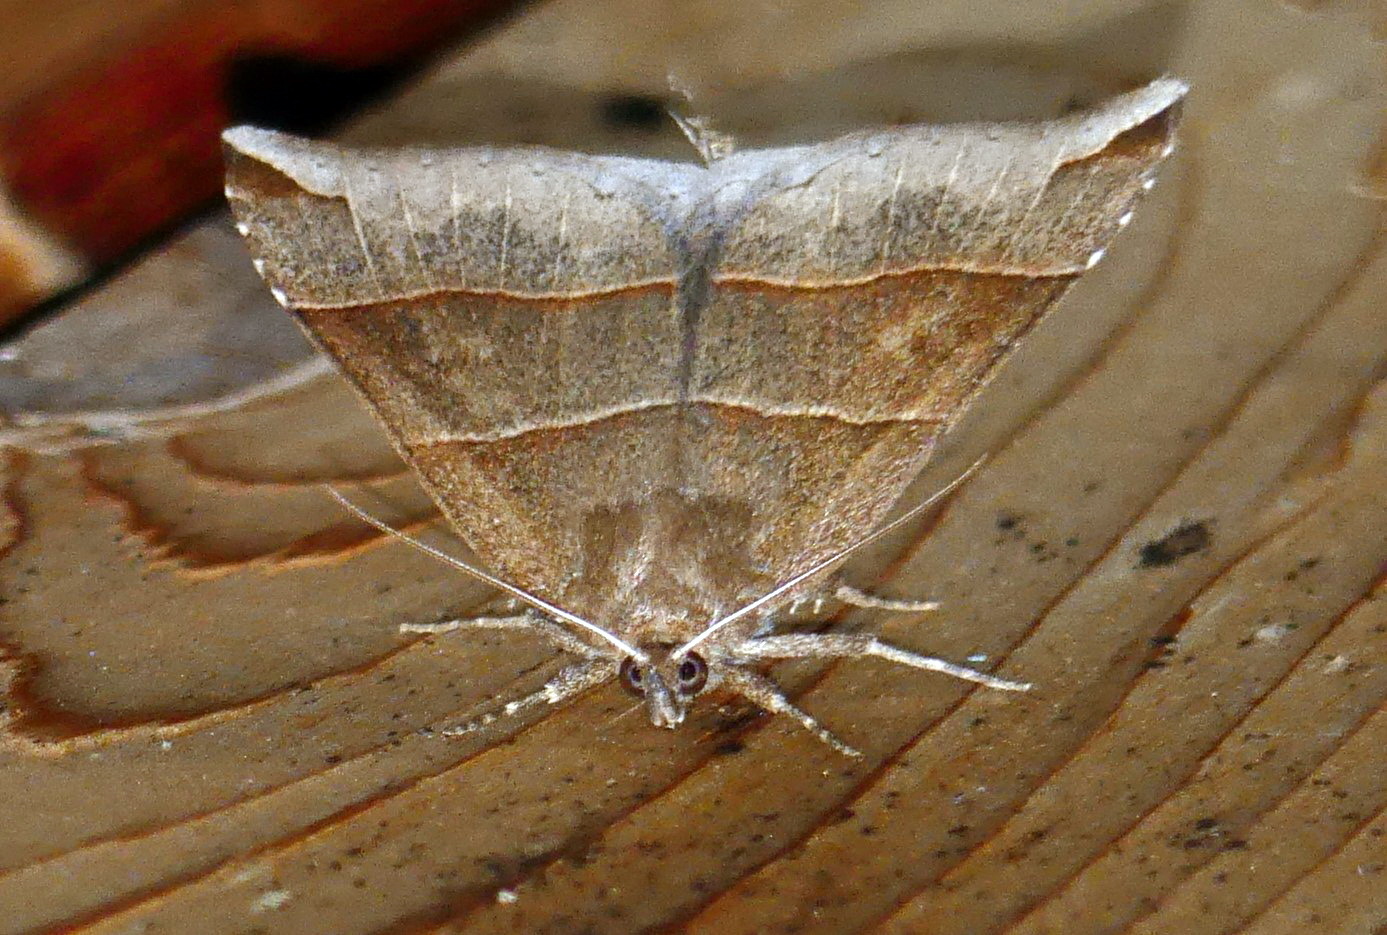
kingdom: Animalia
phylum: Arthropoda
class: Insecta
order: Lepidoptera
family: Erebidae
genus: Parallelia
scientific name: Parallelia bistriaris
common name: Maple looper moth
